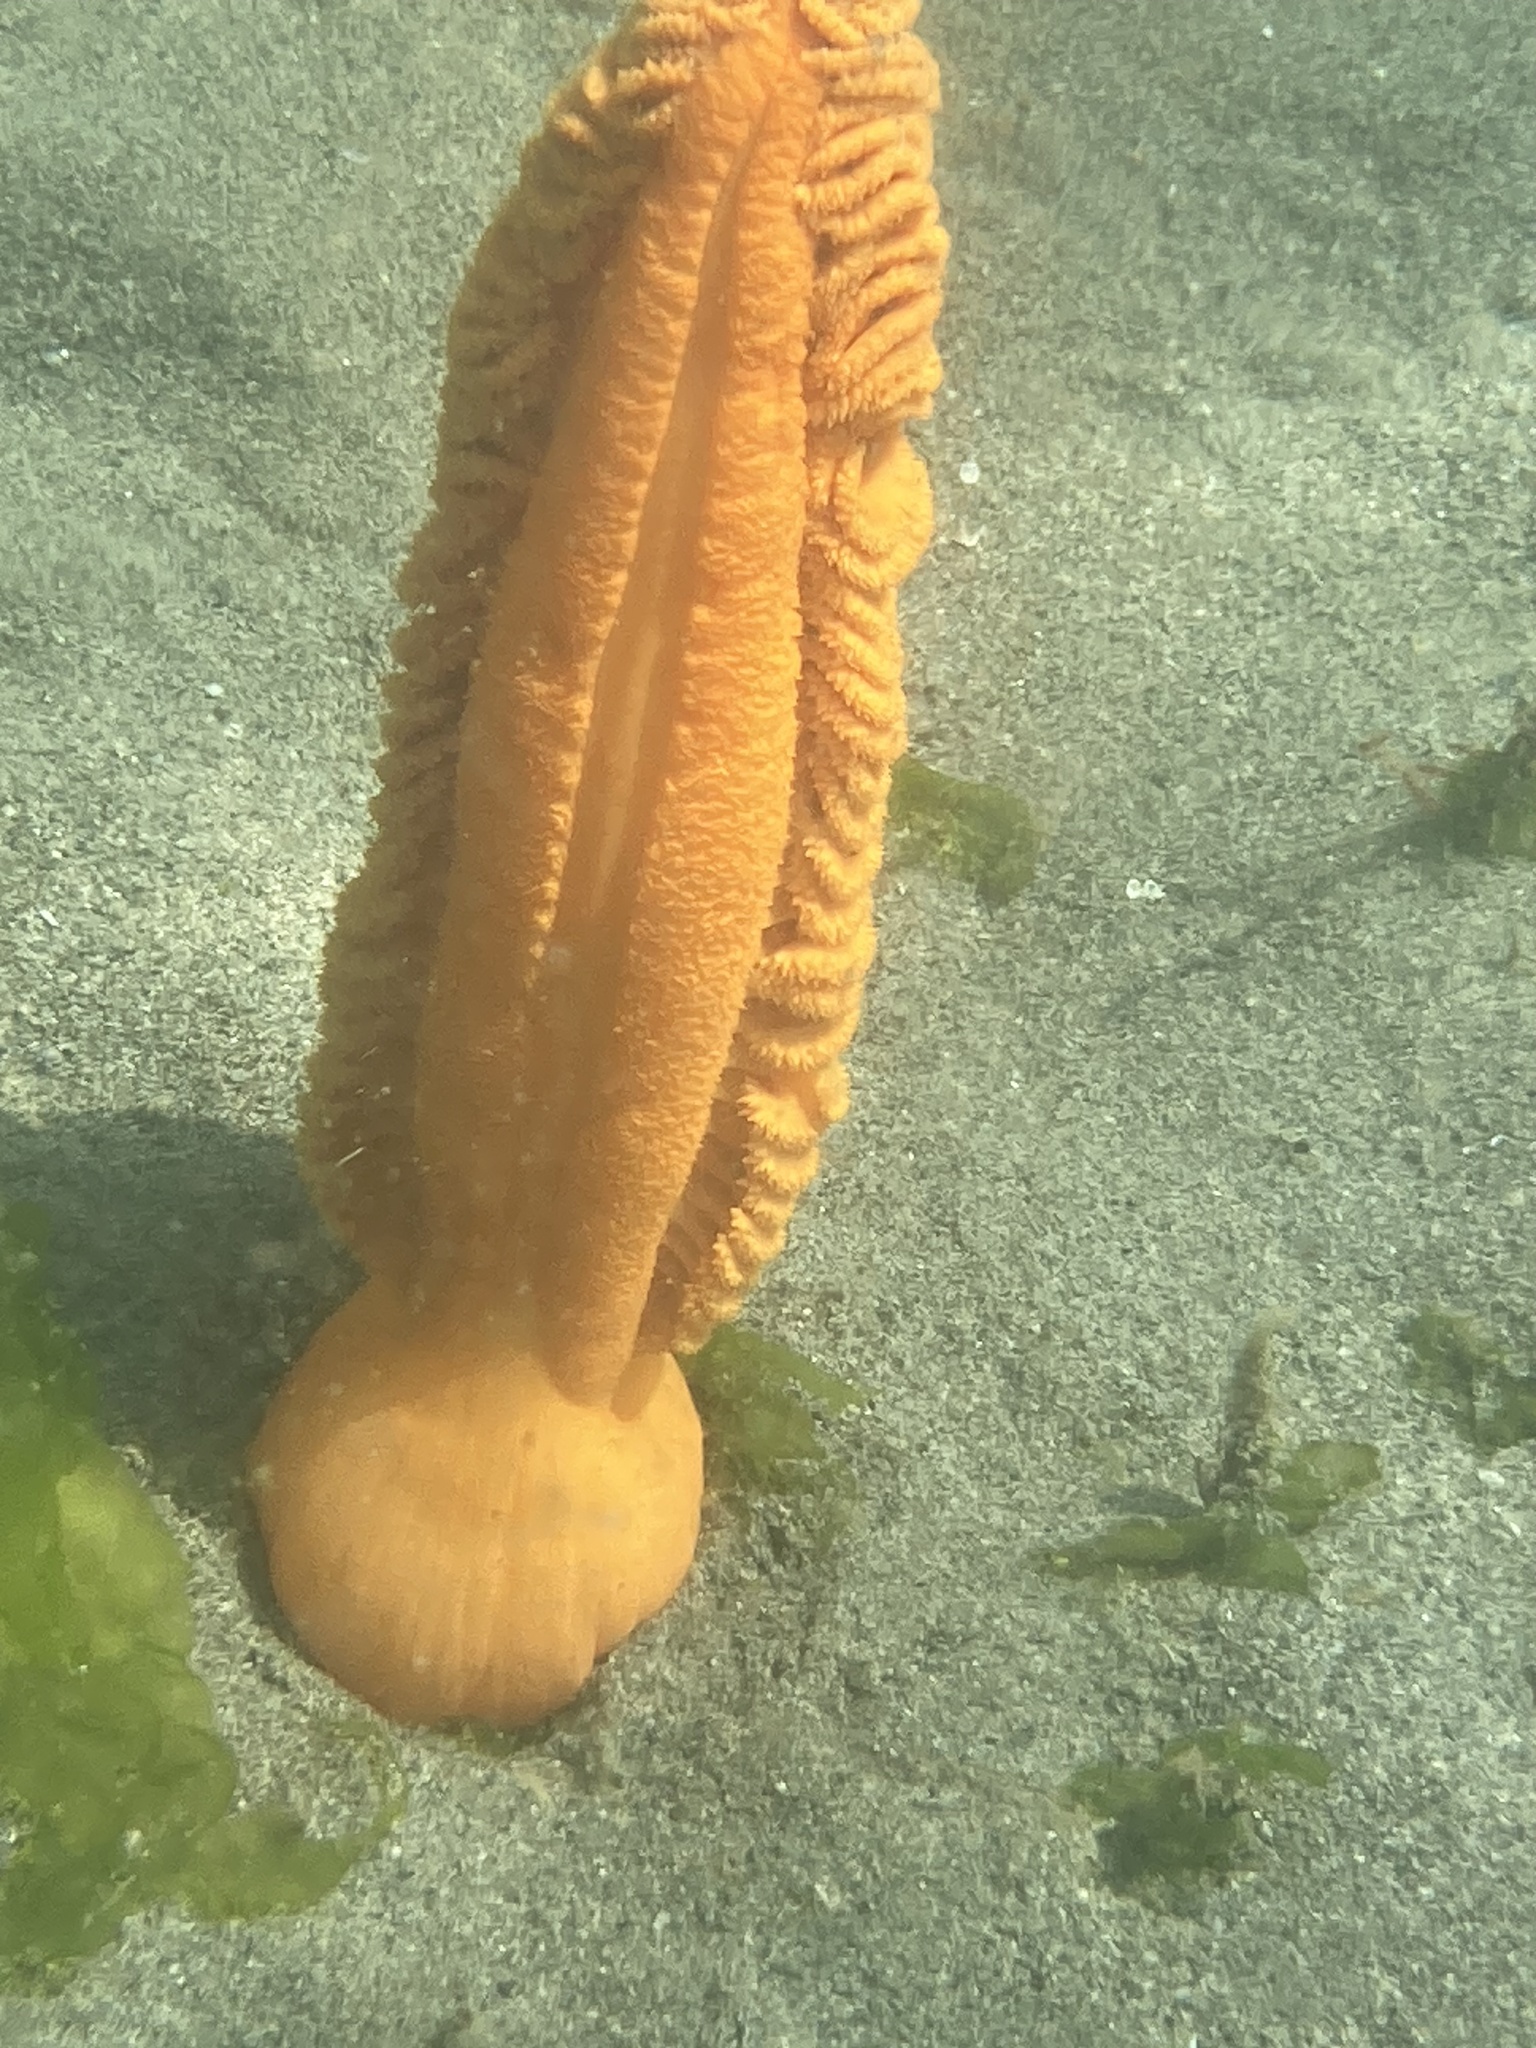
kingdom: Animalia
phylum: Cnidaria
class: Anthozoa
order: Scleralcyonacea
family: Pennatulidae
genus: Ptilosarcus
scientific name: Ptilosarcus gurneyi
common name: Gurney's sea pen
